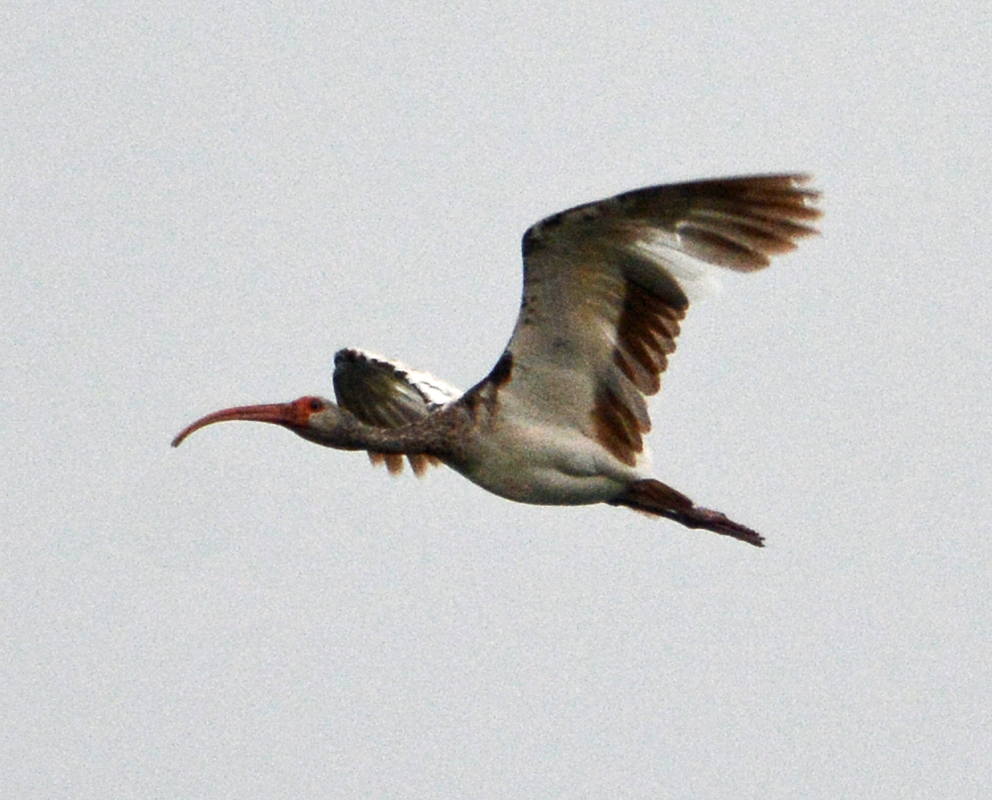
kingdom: Animalia
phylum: Chordata
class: Aves
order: Pelecaniformes
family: Threskiornithidae
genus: Eudocimus
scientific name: Eudocimus albus
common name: White ibis
